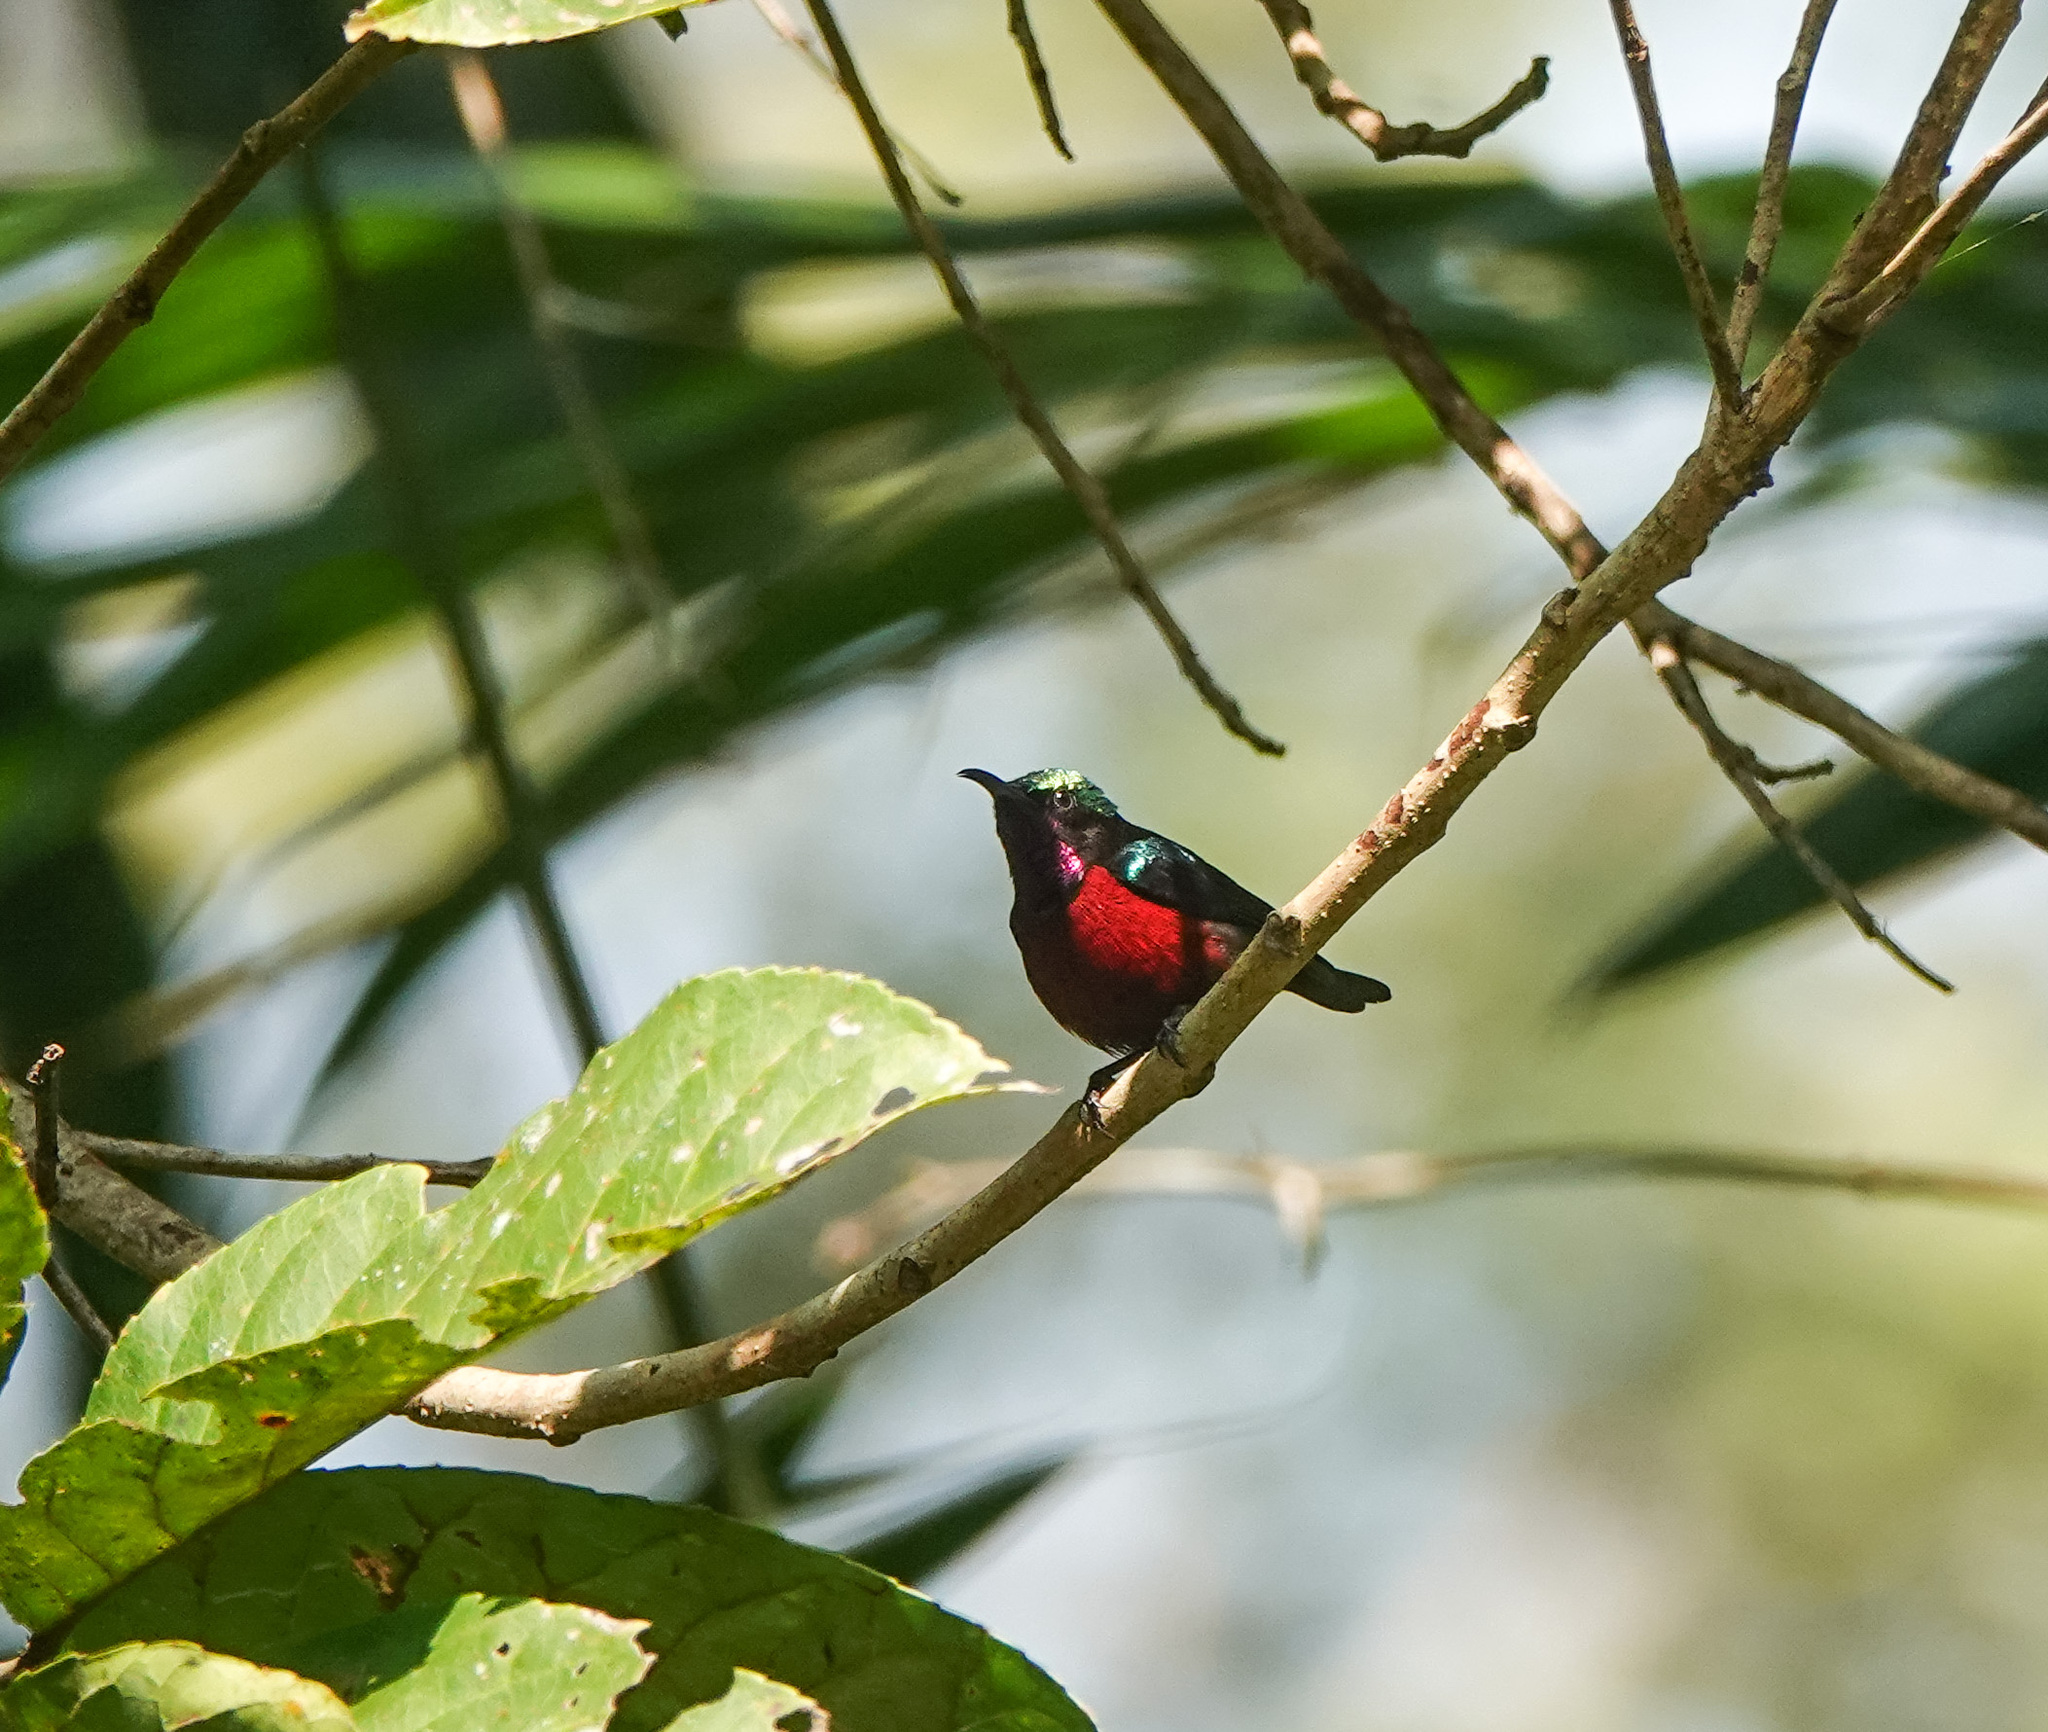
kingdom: Animalia
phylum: Chordata
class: Aves
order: Passeriformes
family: Nectariniidae
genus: Leptocoma
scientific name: Leptocoma brasiliana
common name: Van hasselt's sunbird
